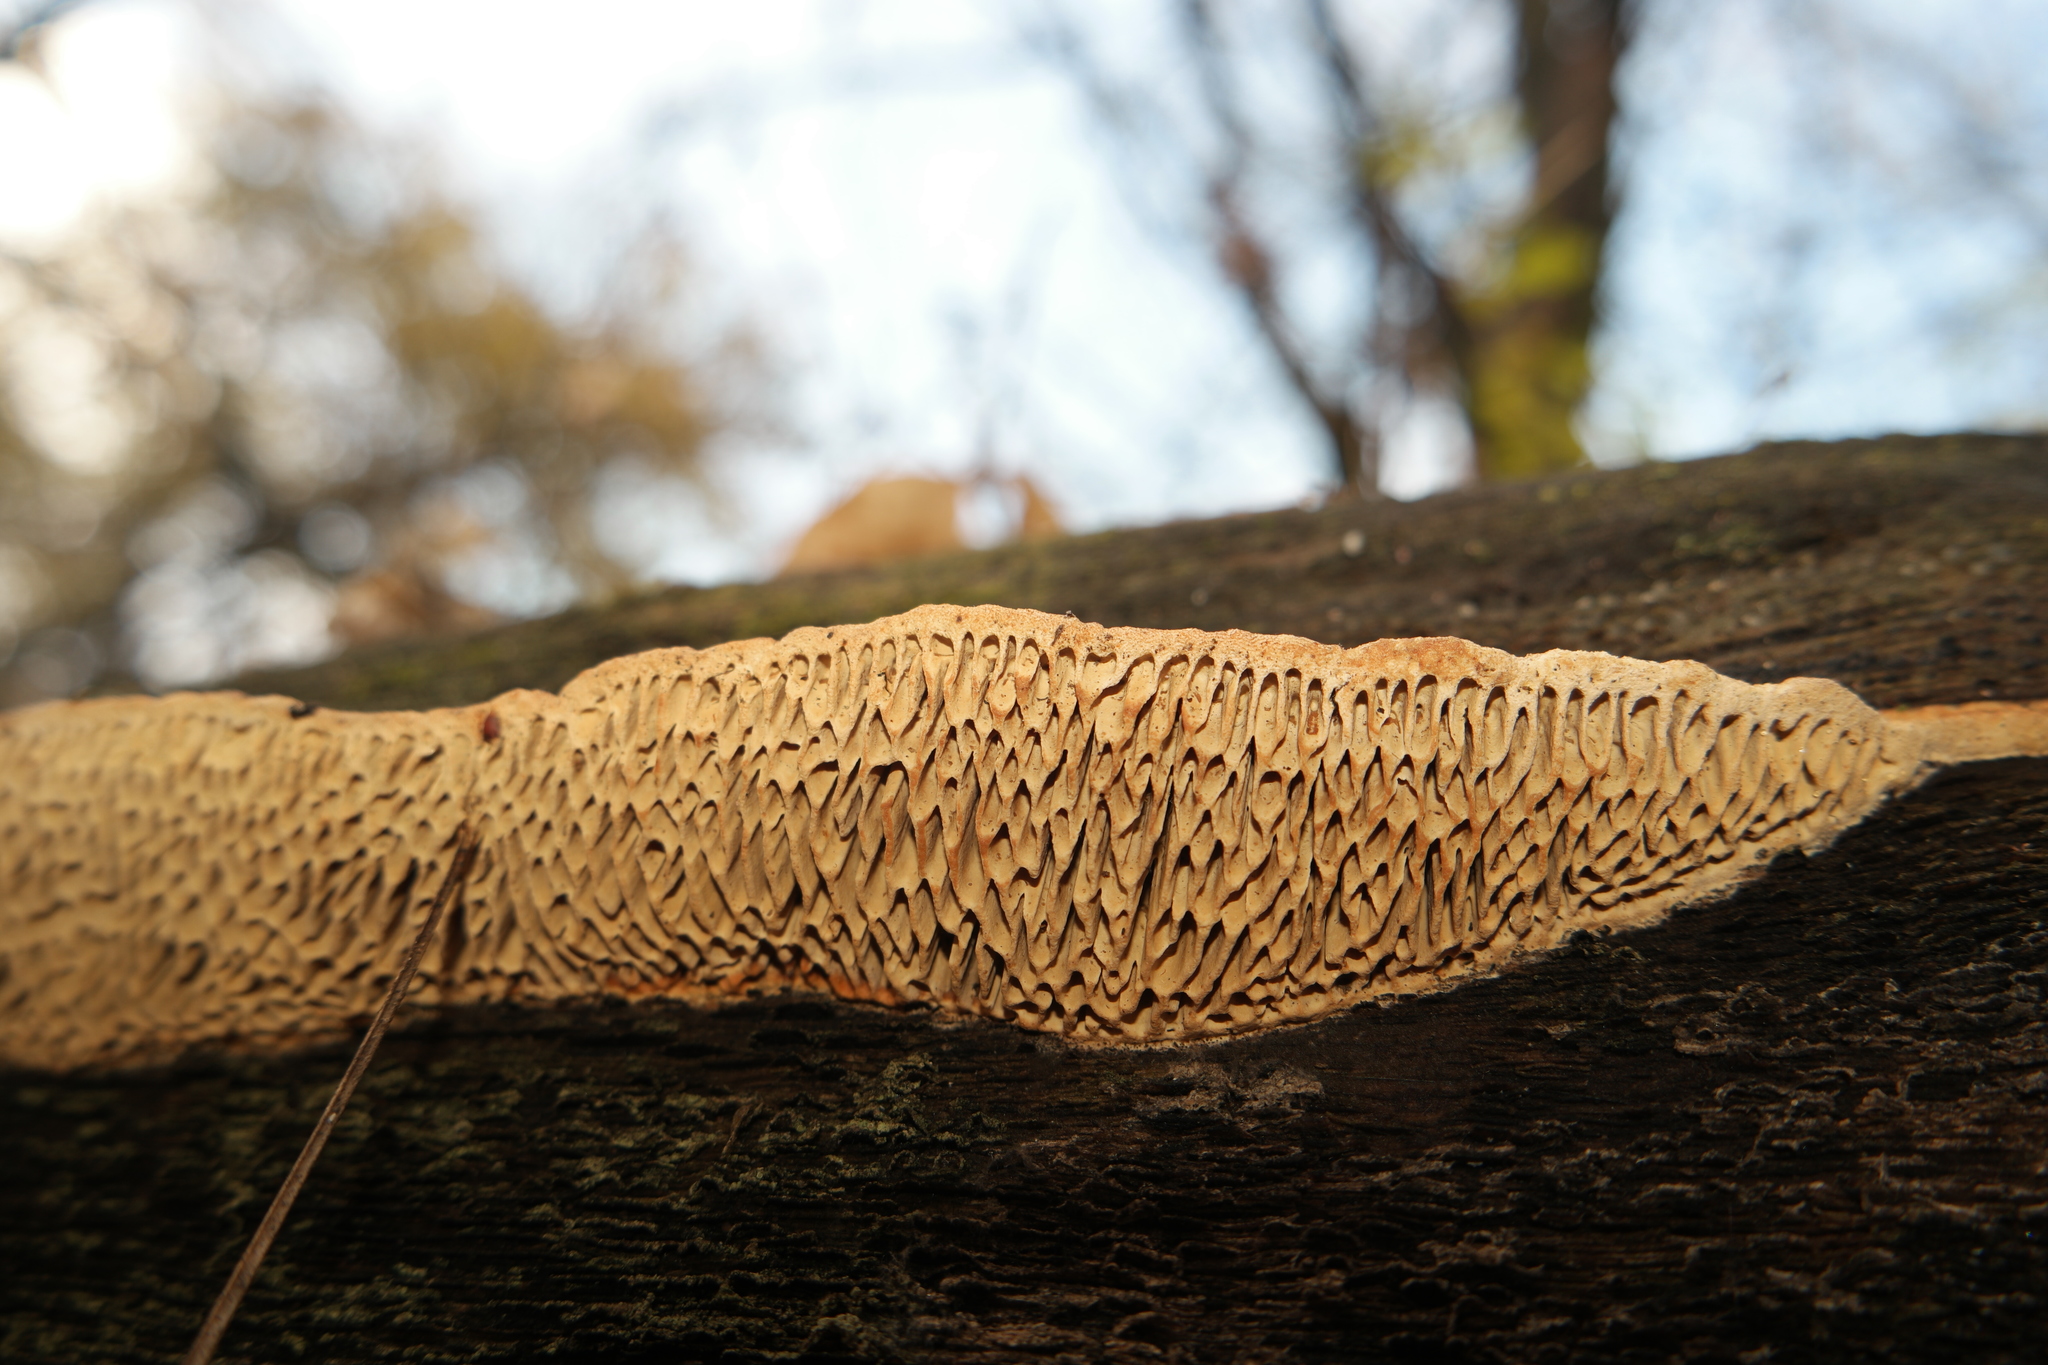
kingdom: Fungi
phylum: Basidiomycota
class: Agaricomycetes
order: Polyporales
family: Fomitopsidaceae
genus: Fomitopsis
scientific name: Fomitopsis
